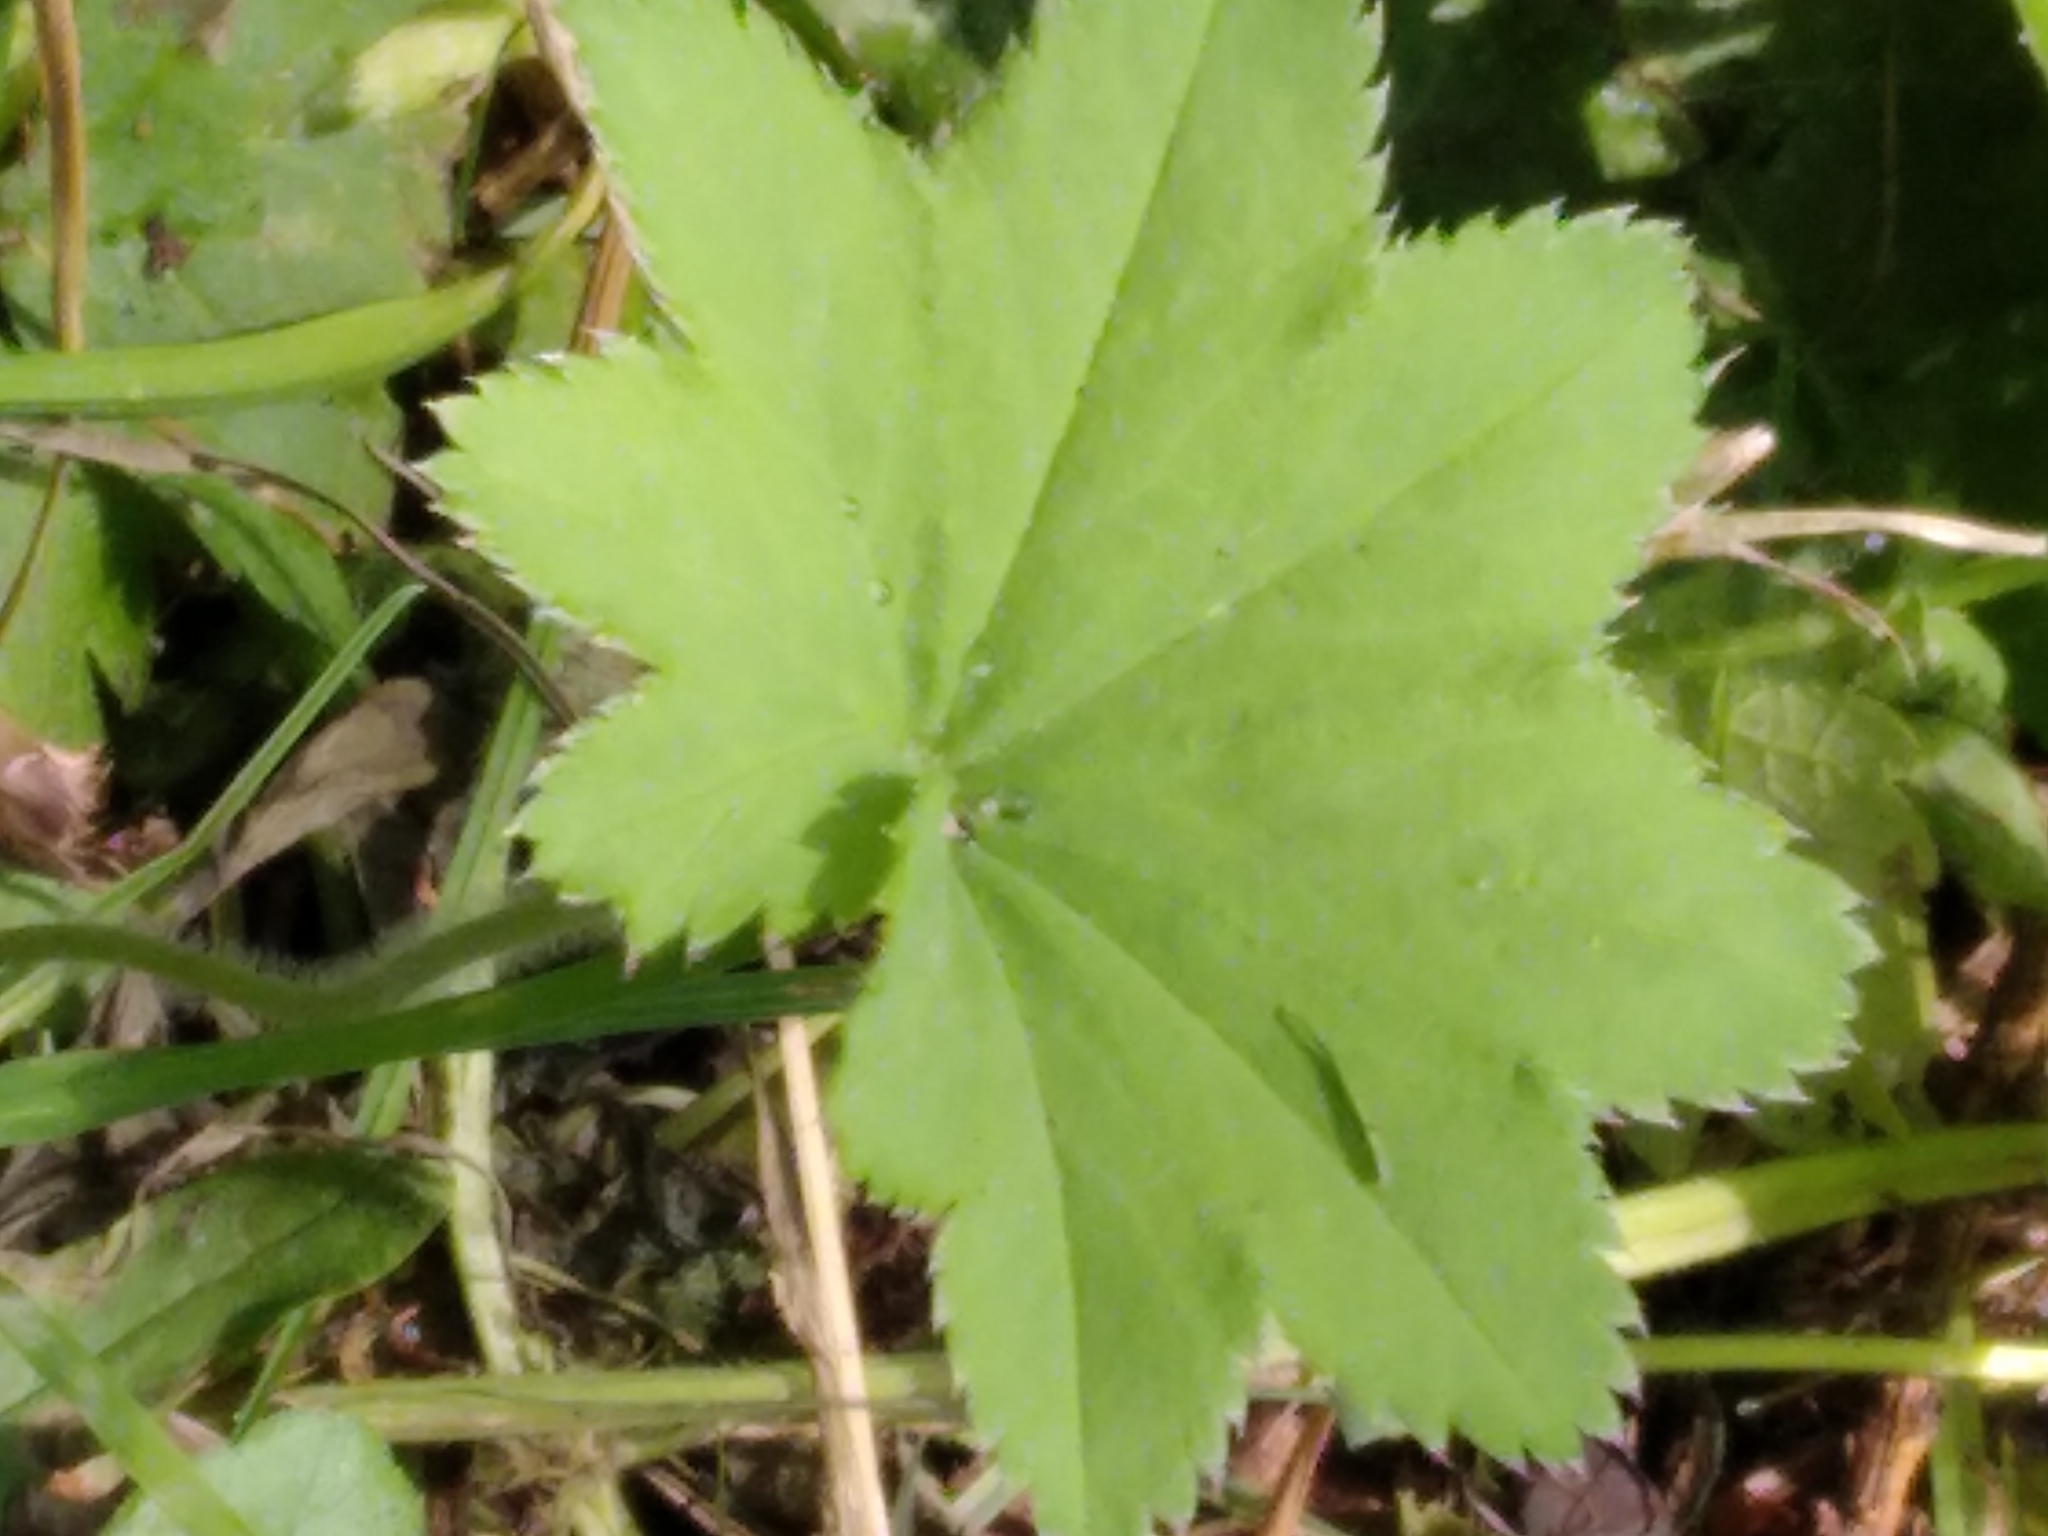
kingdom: Plantae
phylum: Tracheophyta
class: Magnoliopsida
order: Rosales
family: Rosaceae
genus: Alchemilla
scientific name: Alchemilla
